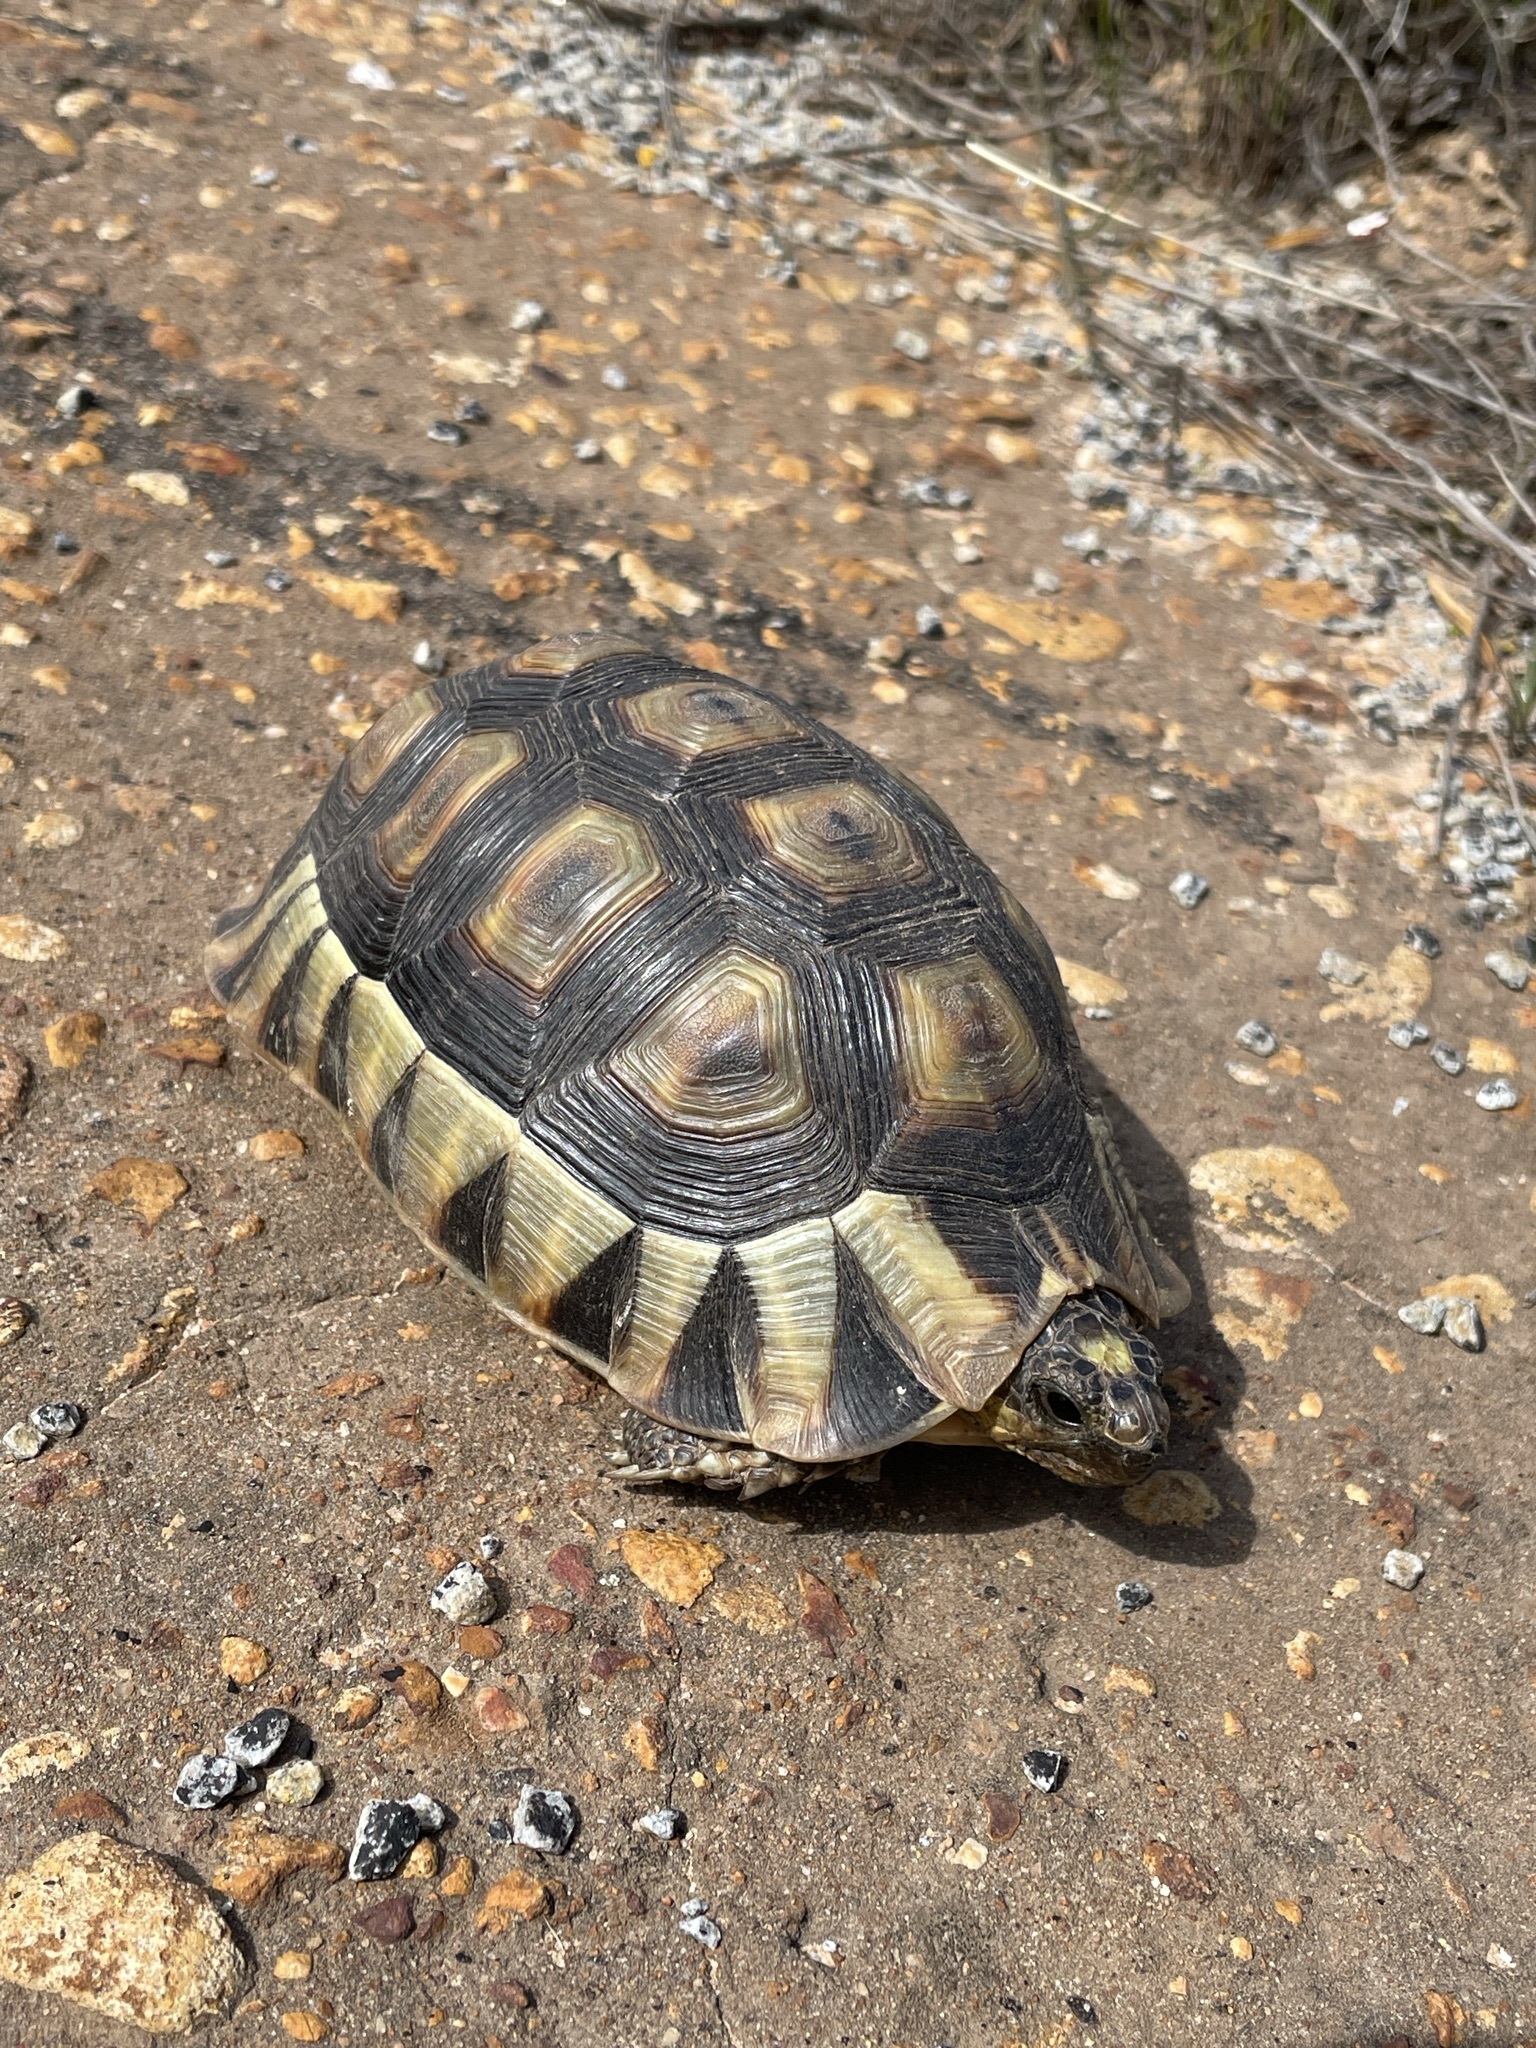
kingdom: Animalia
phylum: Chordata
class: Testudines
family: Testudinidae
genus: Chersina
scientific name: Chersina angulata
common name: South african bowsprit tortoise
